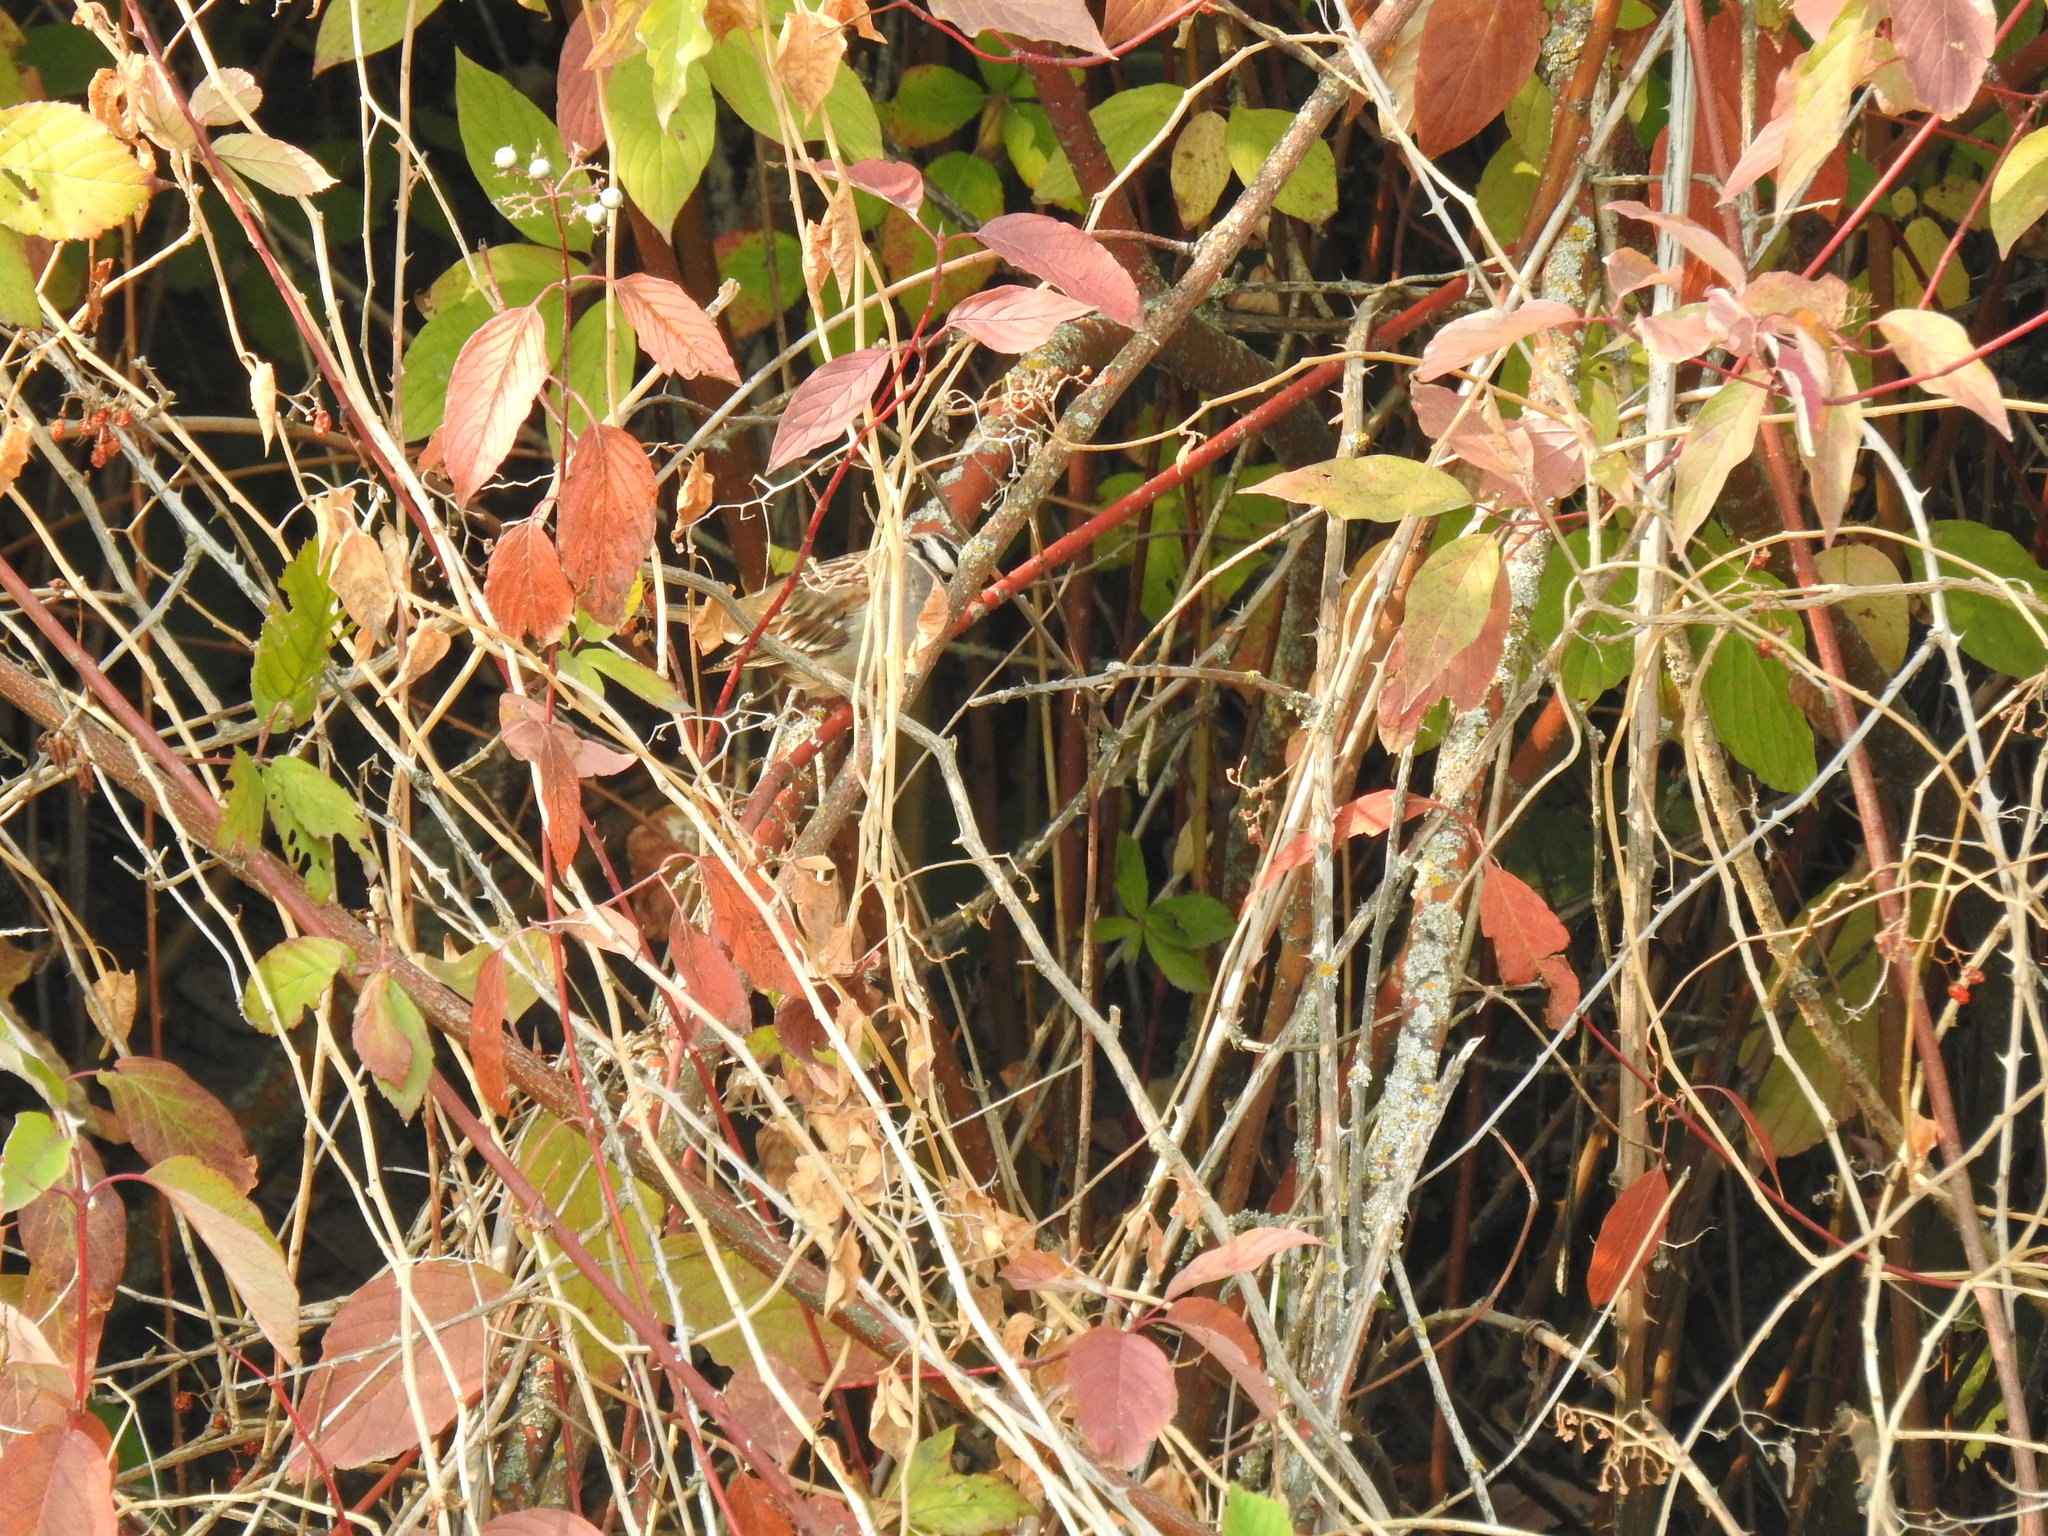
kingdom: Animalia
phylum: Chordata
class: Aves
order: Passeriformes
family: Passerellidae
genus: Zonotrichia
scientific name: Zonotrichia leucophrys
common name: White-crowned sparrow
